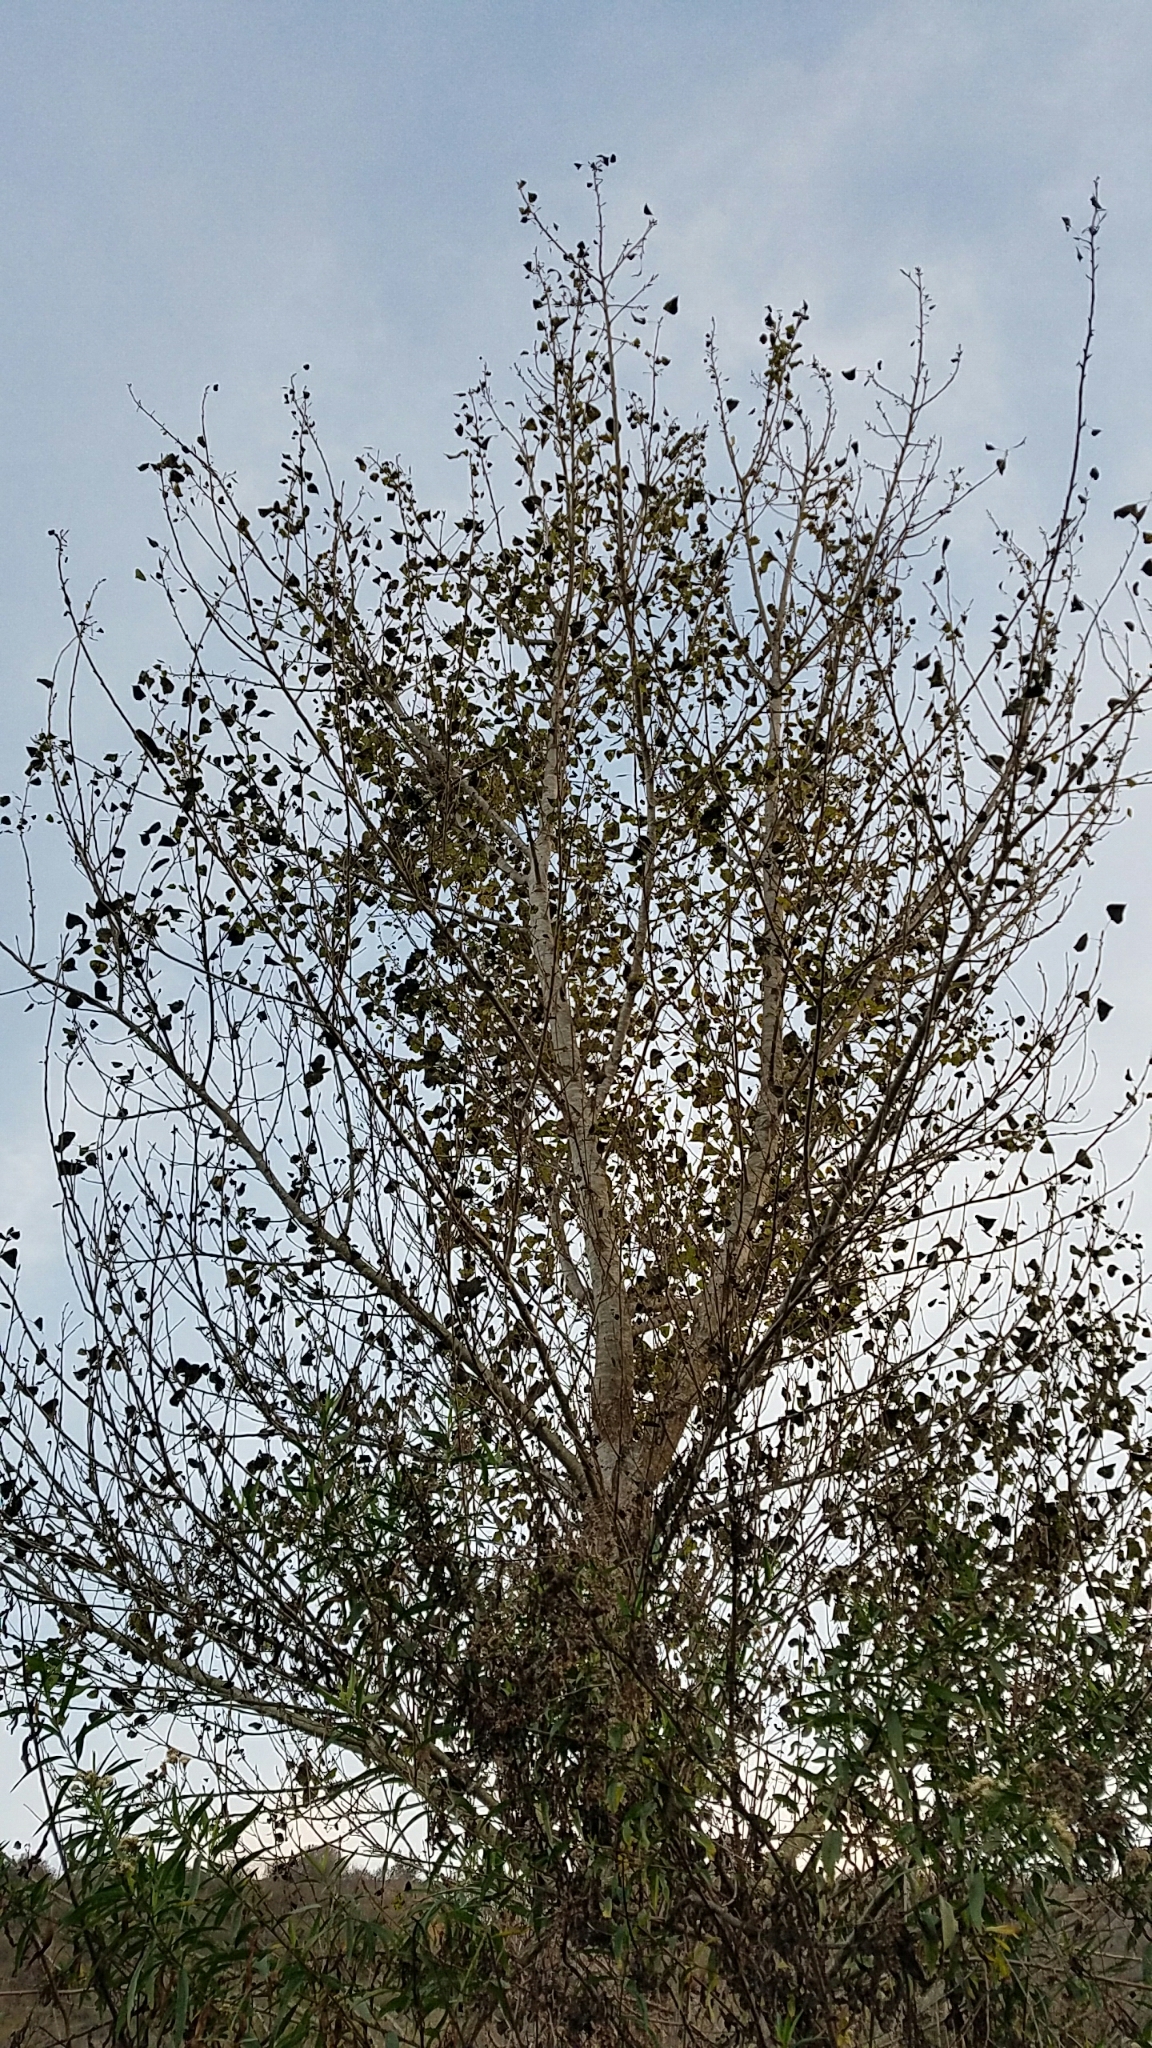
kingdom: Plantae
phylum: Tracheophyta
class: Magnoliopsida
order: Malpighiales
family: Salicaceae
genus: Populus
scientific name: Populus fremontii
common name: Fremont's cottonwood
